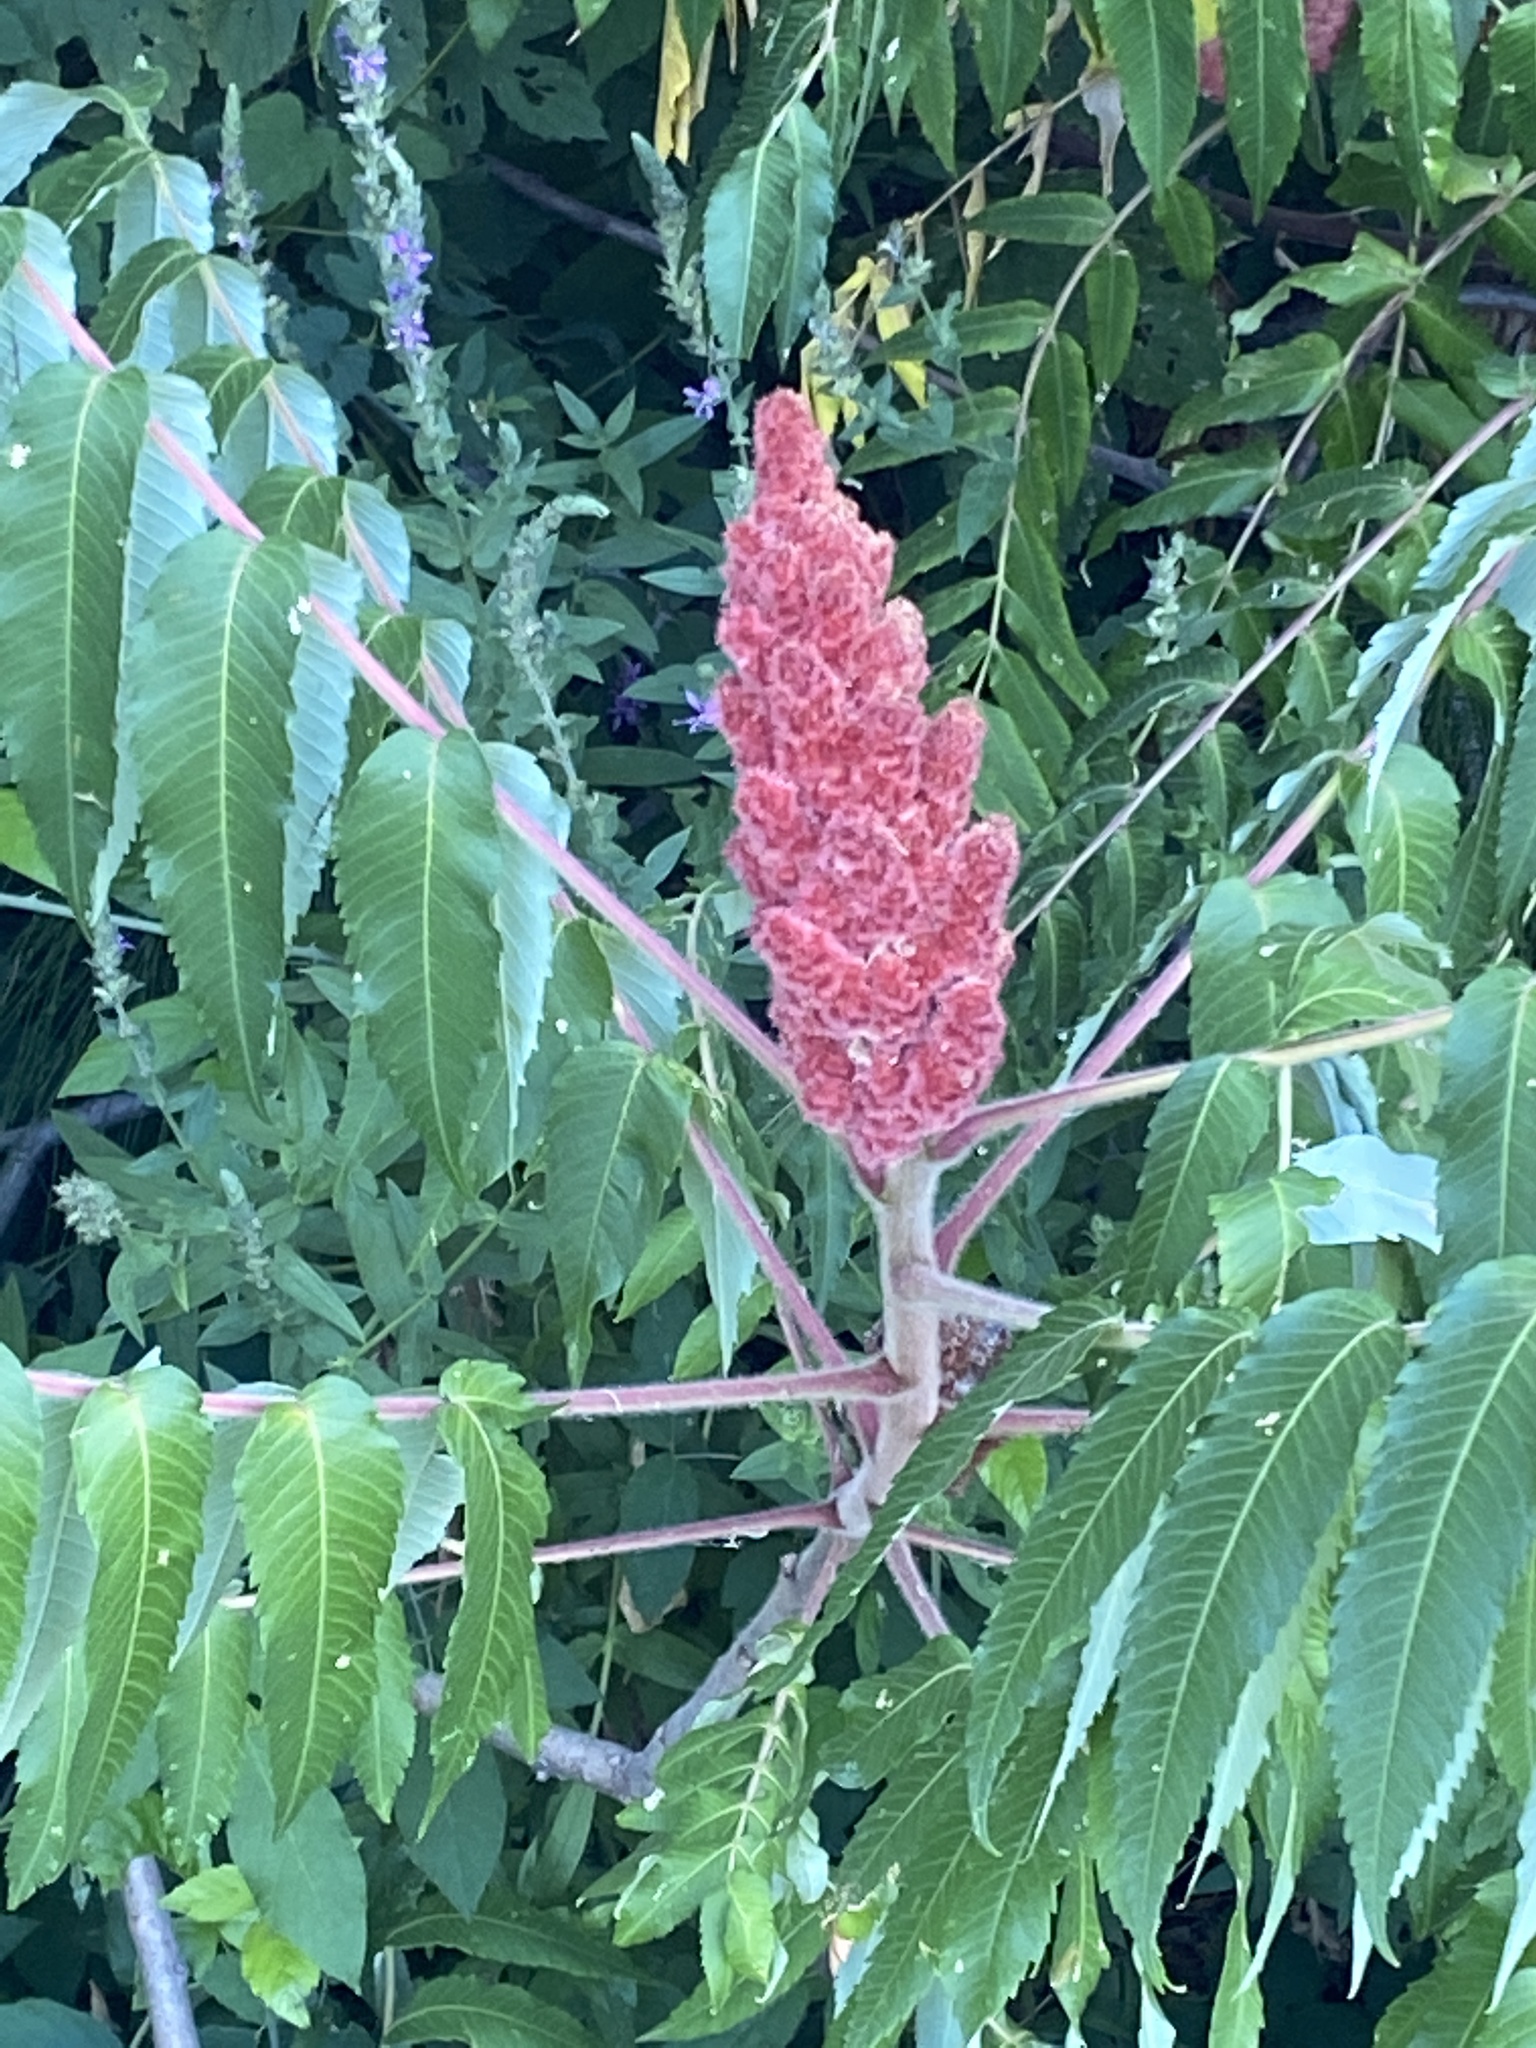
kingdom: Plantae
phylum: Tracheophyta
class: Magnoliopsida
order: Sapindales
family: Anacardiaceae
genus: Rhus
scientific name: Rhus typhina
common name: Staghorn sumac
